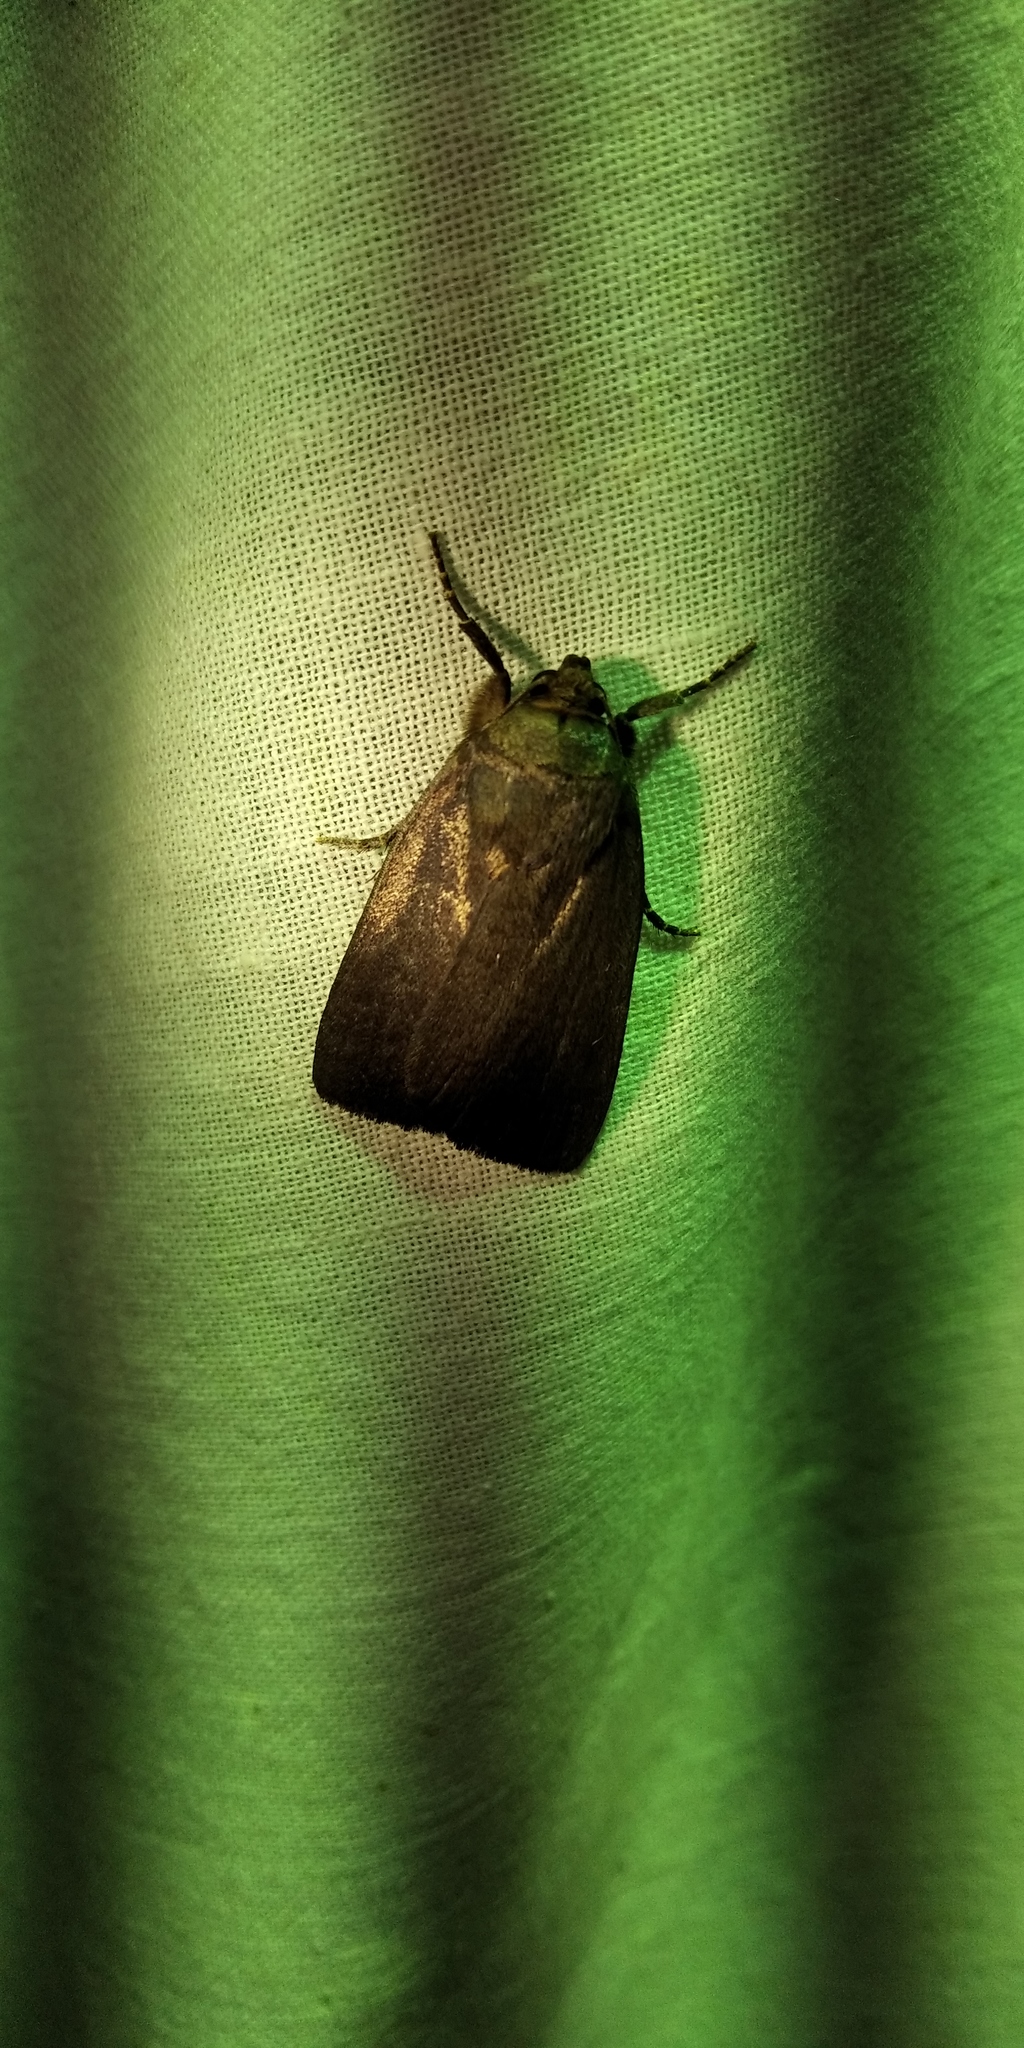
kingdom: Animalia
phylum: Arthropoda
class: Insecta
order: Lepidoptera
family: Noctuidae
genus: Amphipyra
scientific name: Amphipyra livida
